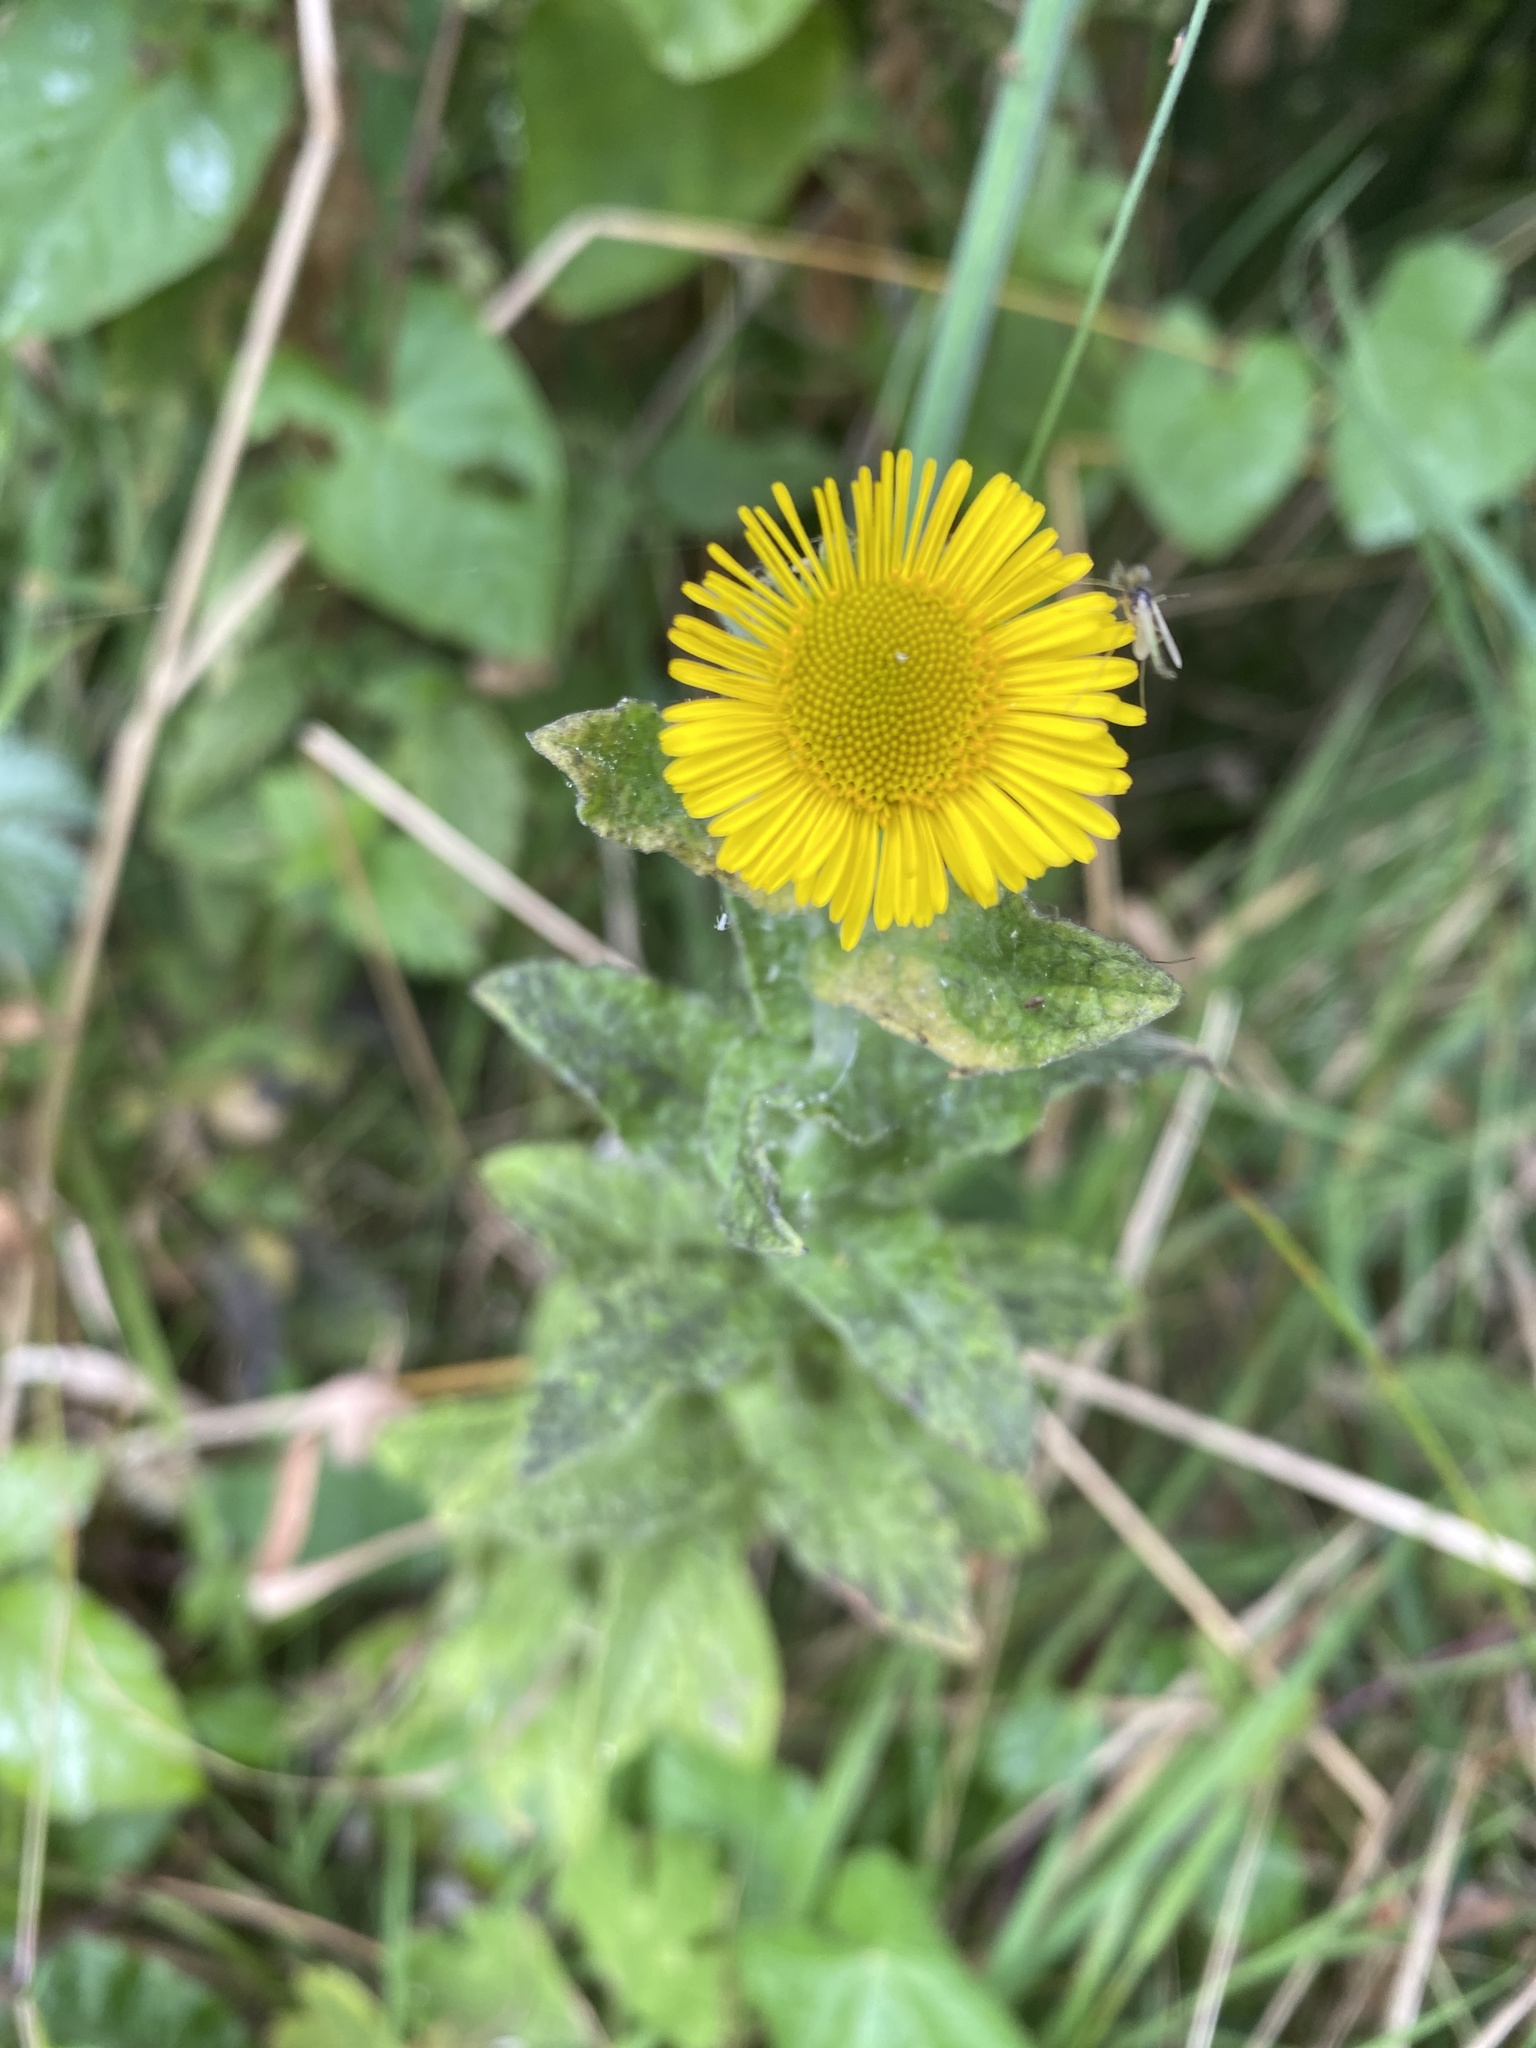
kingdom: Plantae
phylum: Tracheophyta
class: Magnoliopsida
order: Asterales
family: Asteraceae
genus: Pulicaria
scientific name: Pulicaria dysenterica
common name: Common fleabane
